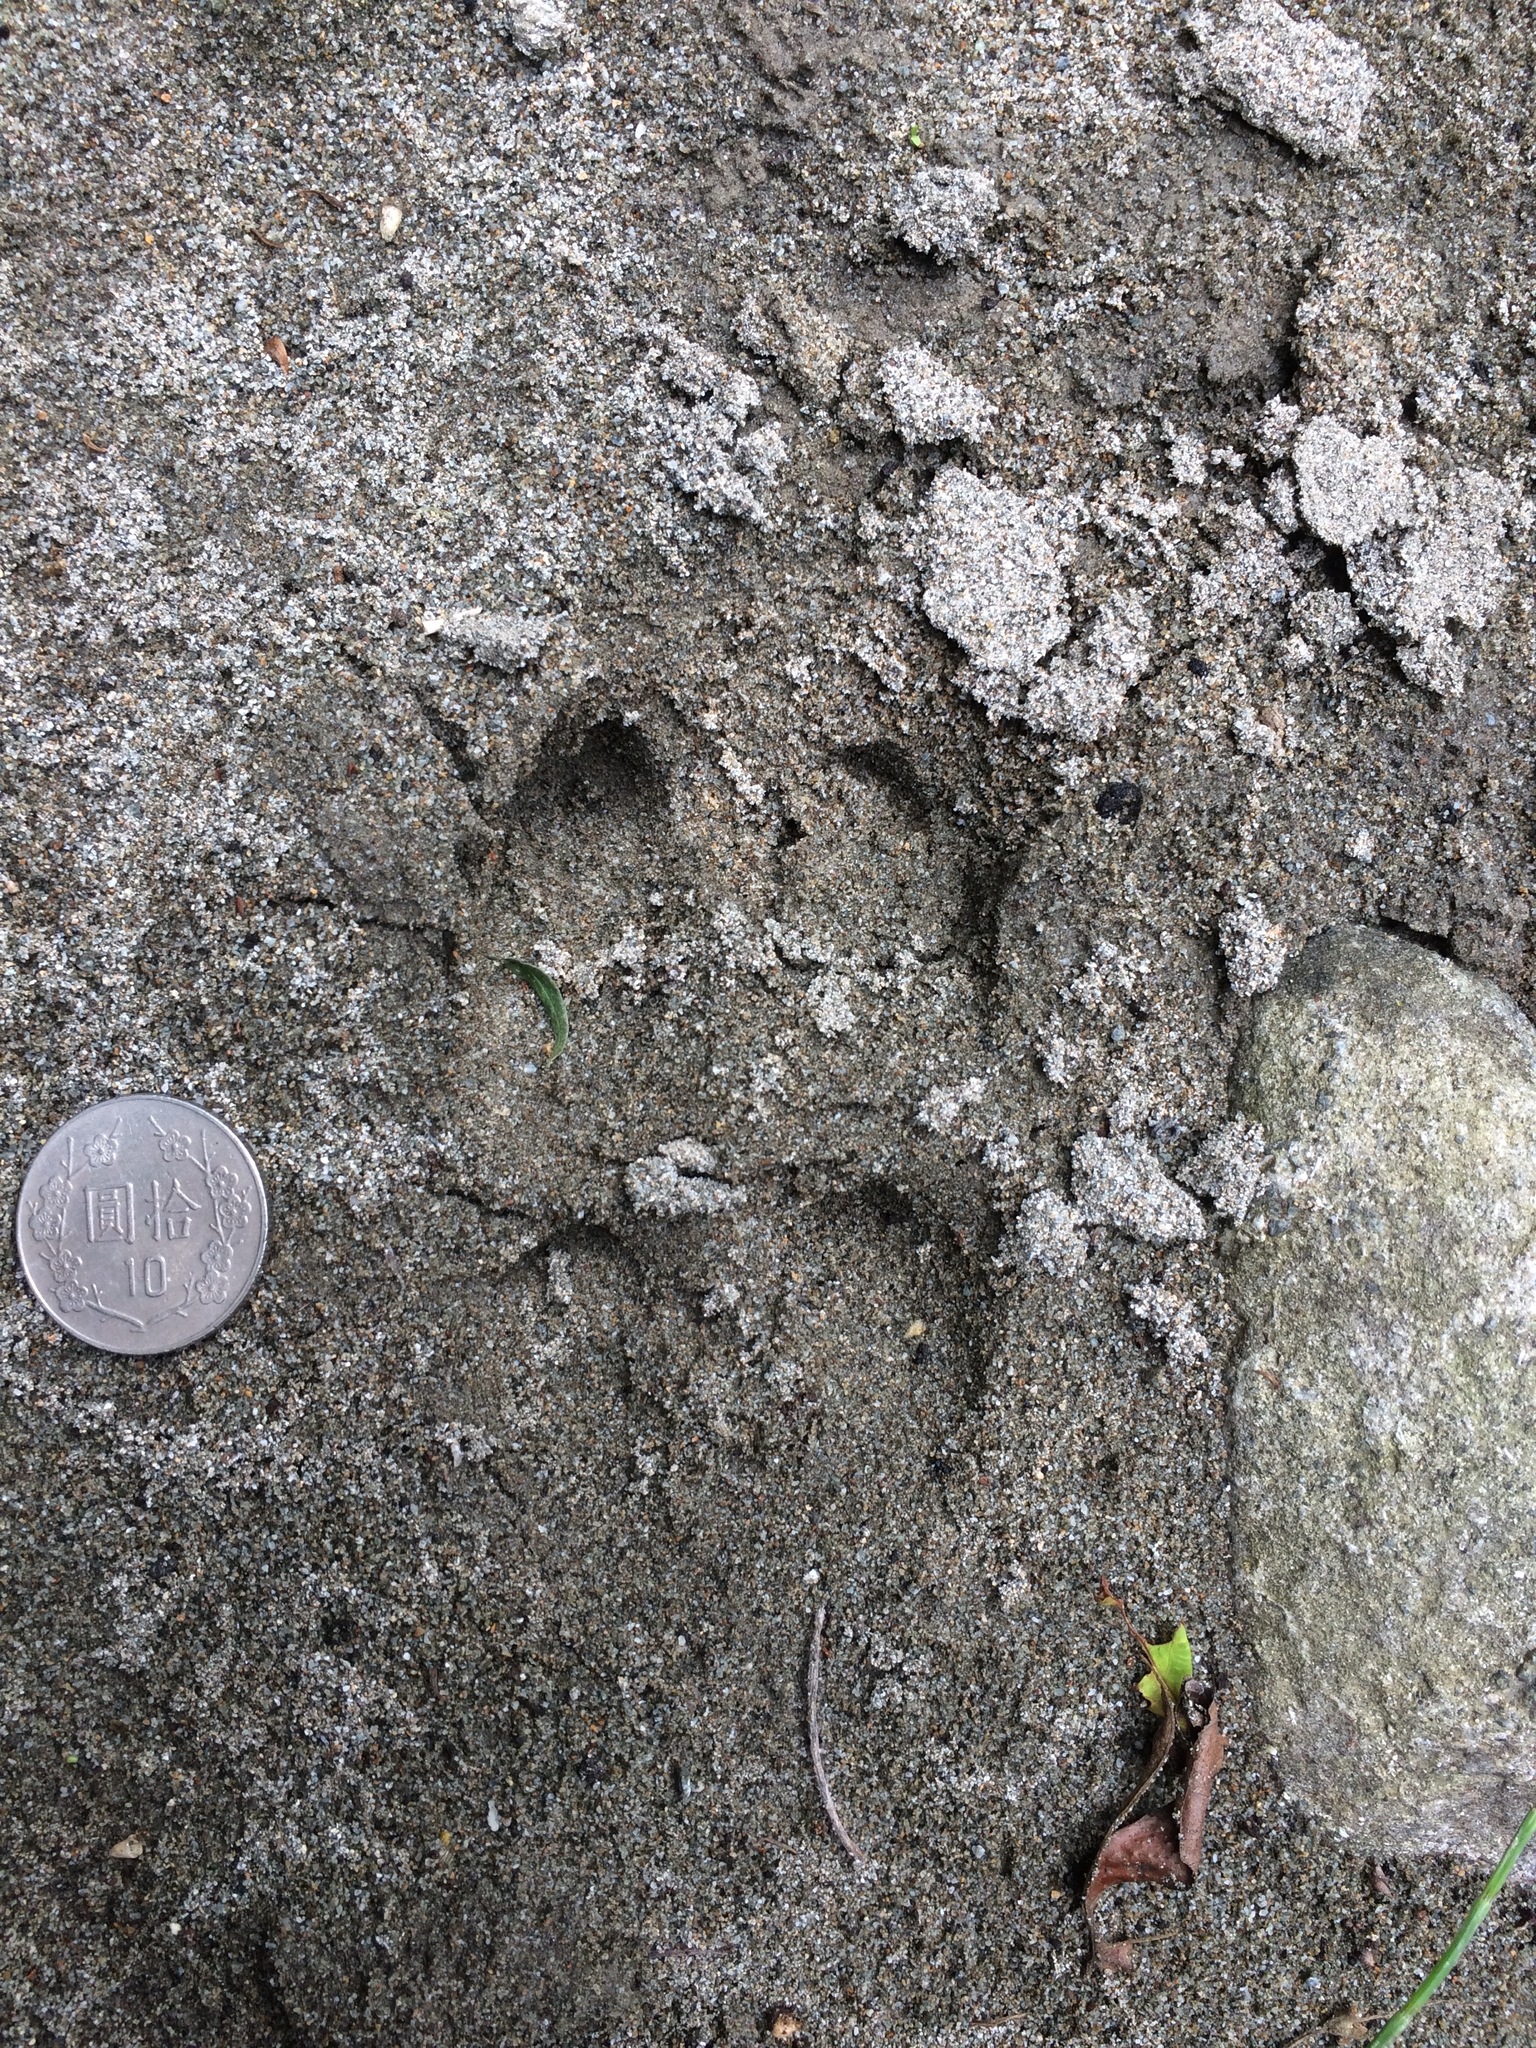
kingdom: Animalia
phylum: Chordata
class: Mammalia
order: Artiodactyla
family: Bovidae
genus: Bos
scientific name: Bos taurus
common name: Domesticated cattle
